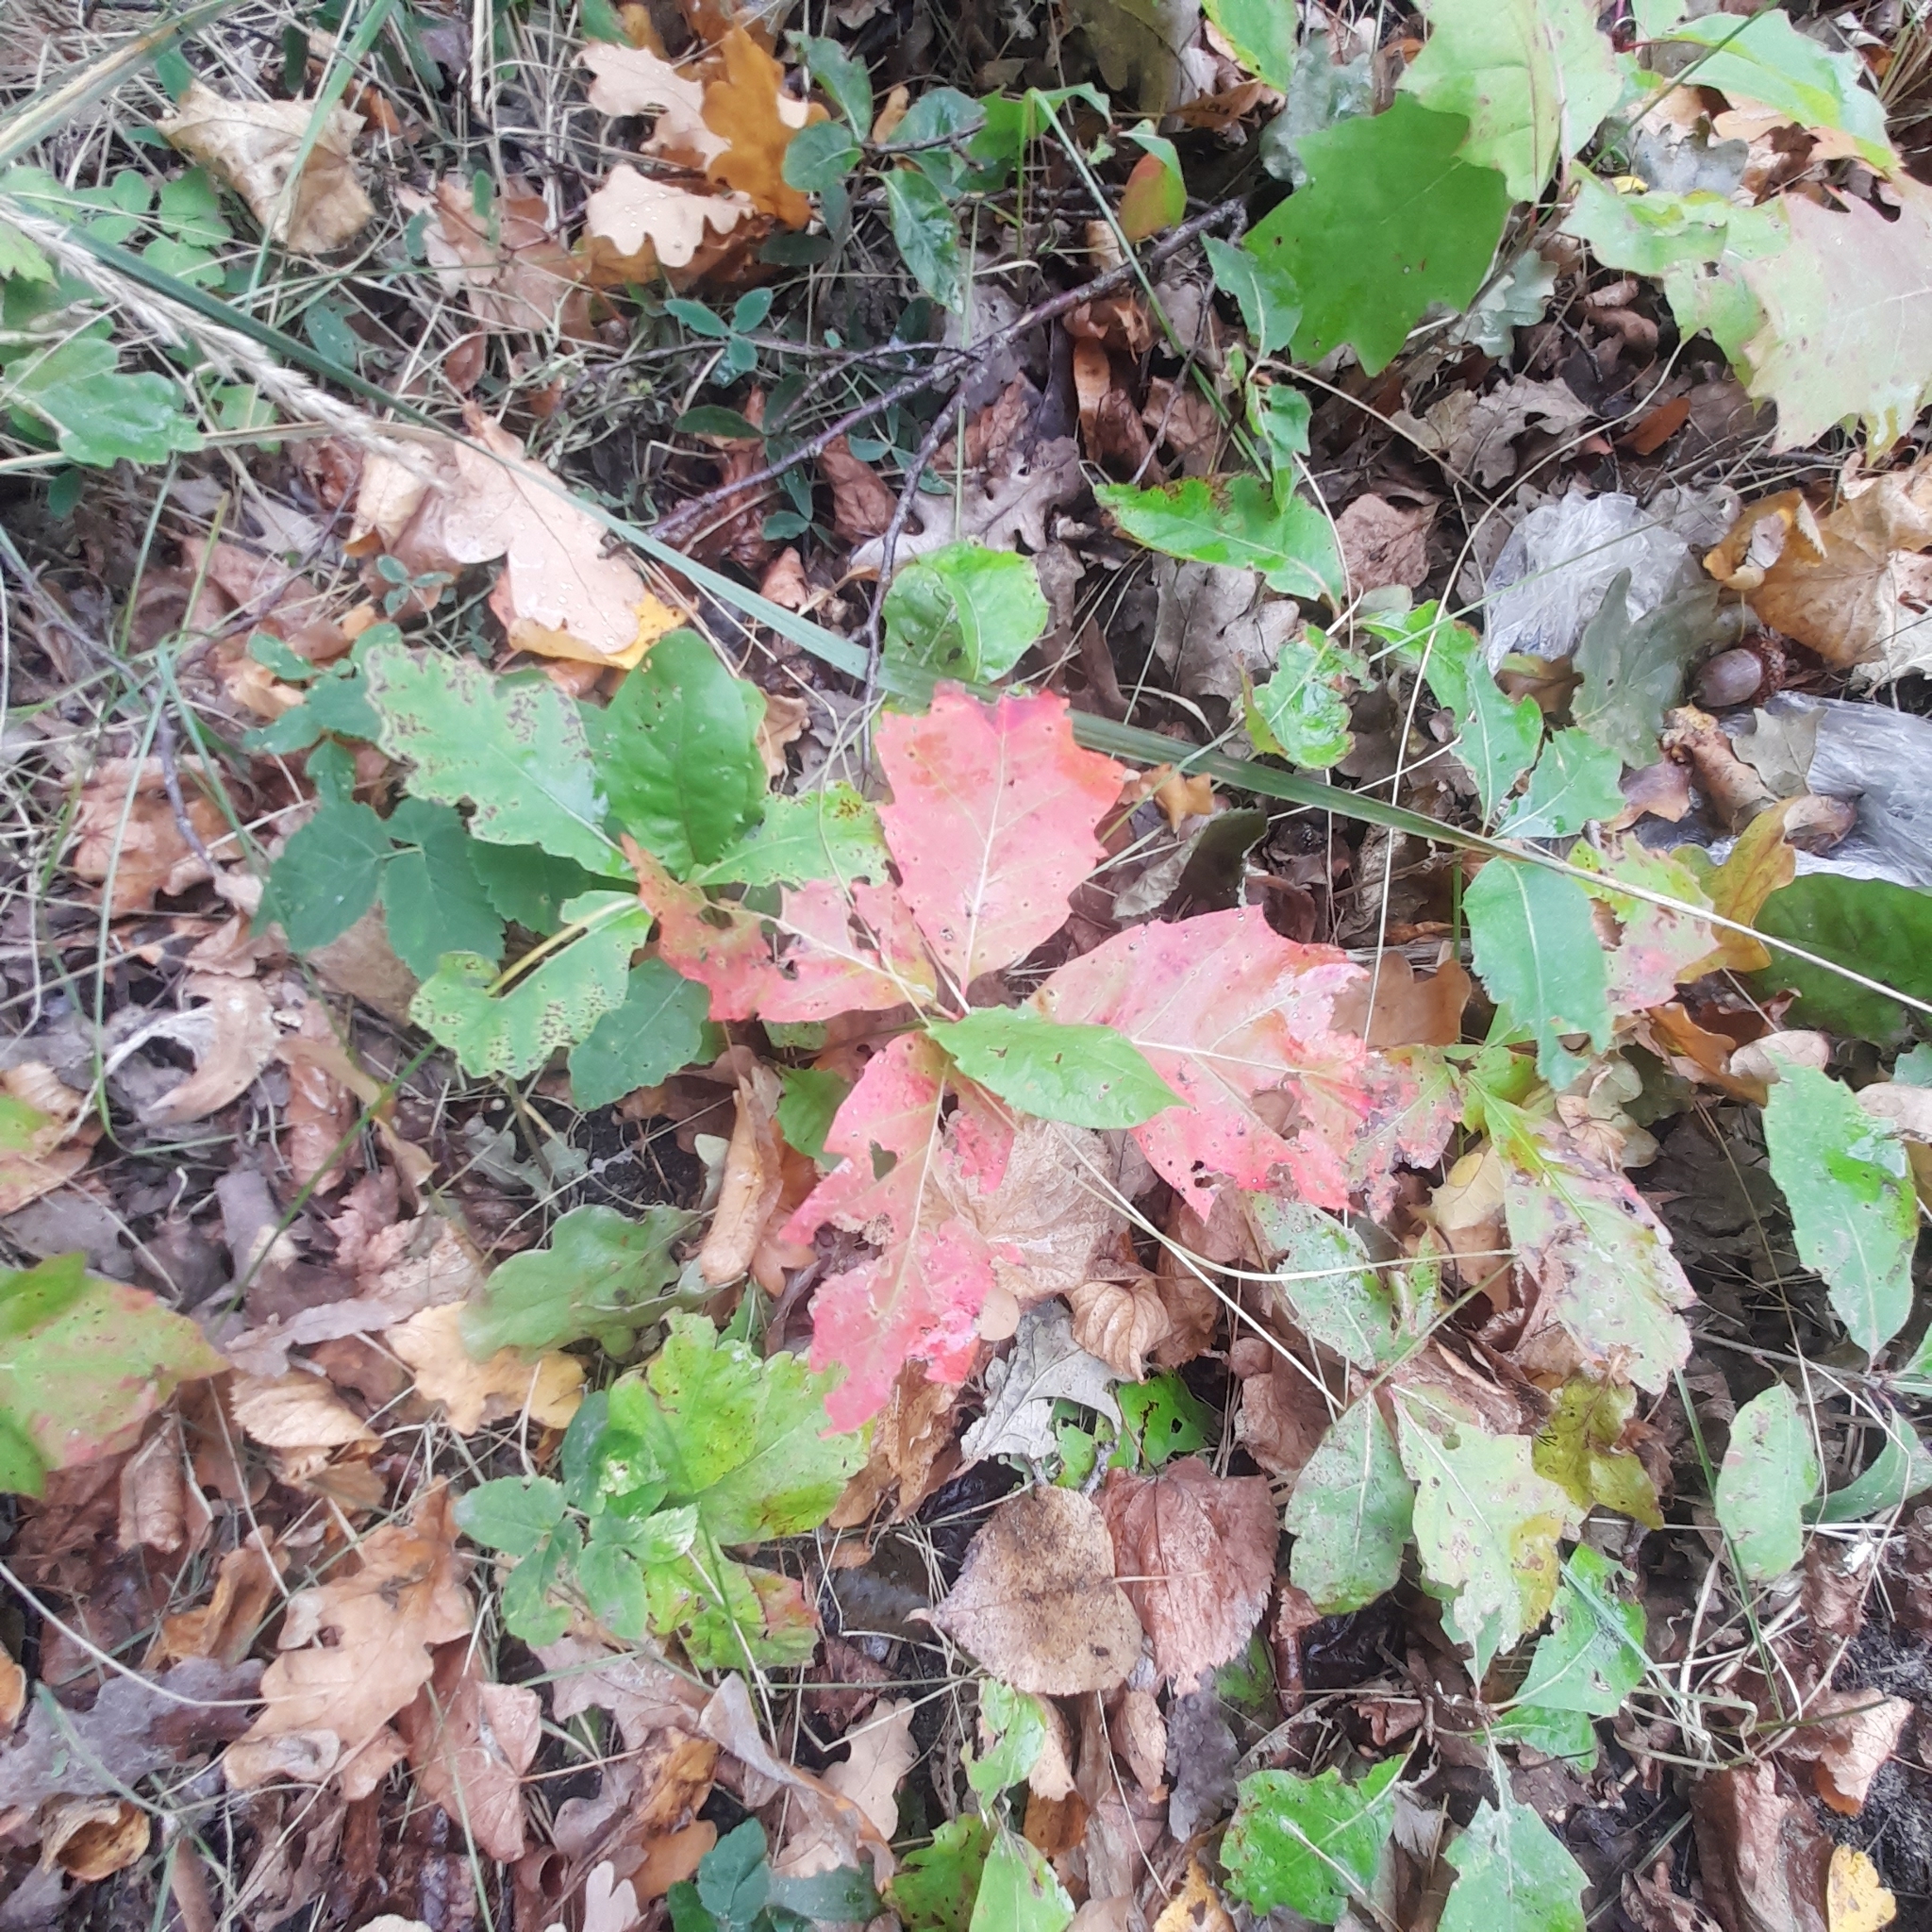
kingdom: Plantae
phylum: Tracheophyta
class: Magnoliopsida
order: Fagales
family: Fagaceae
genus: Quercus
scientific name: Quercus rubra
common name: Red oak
